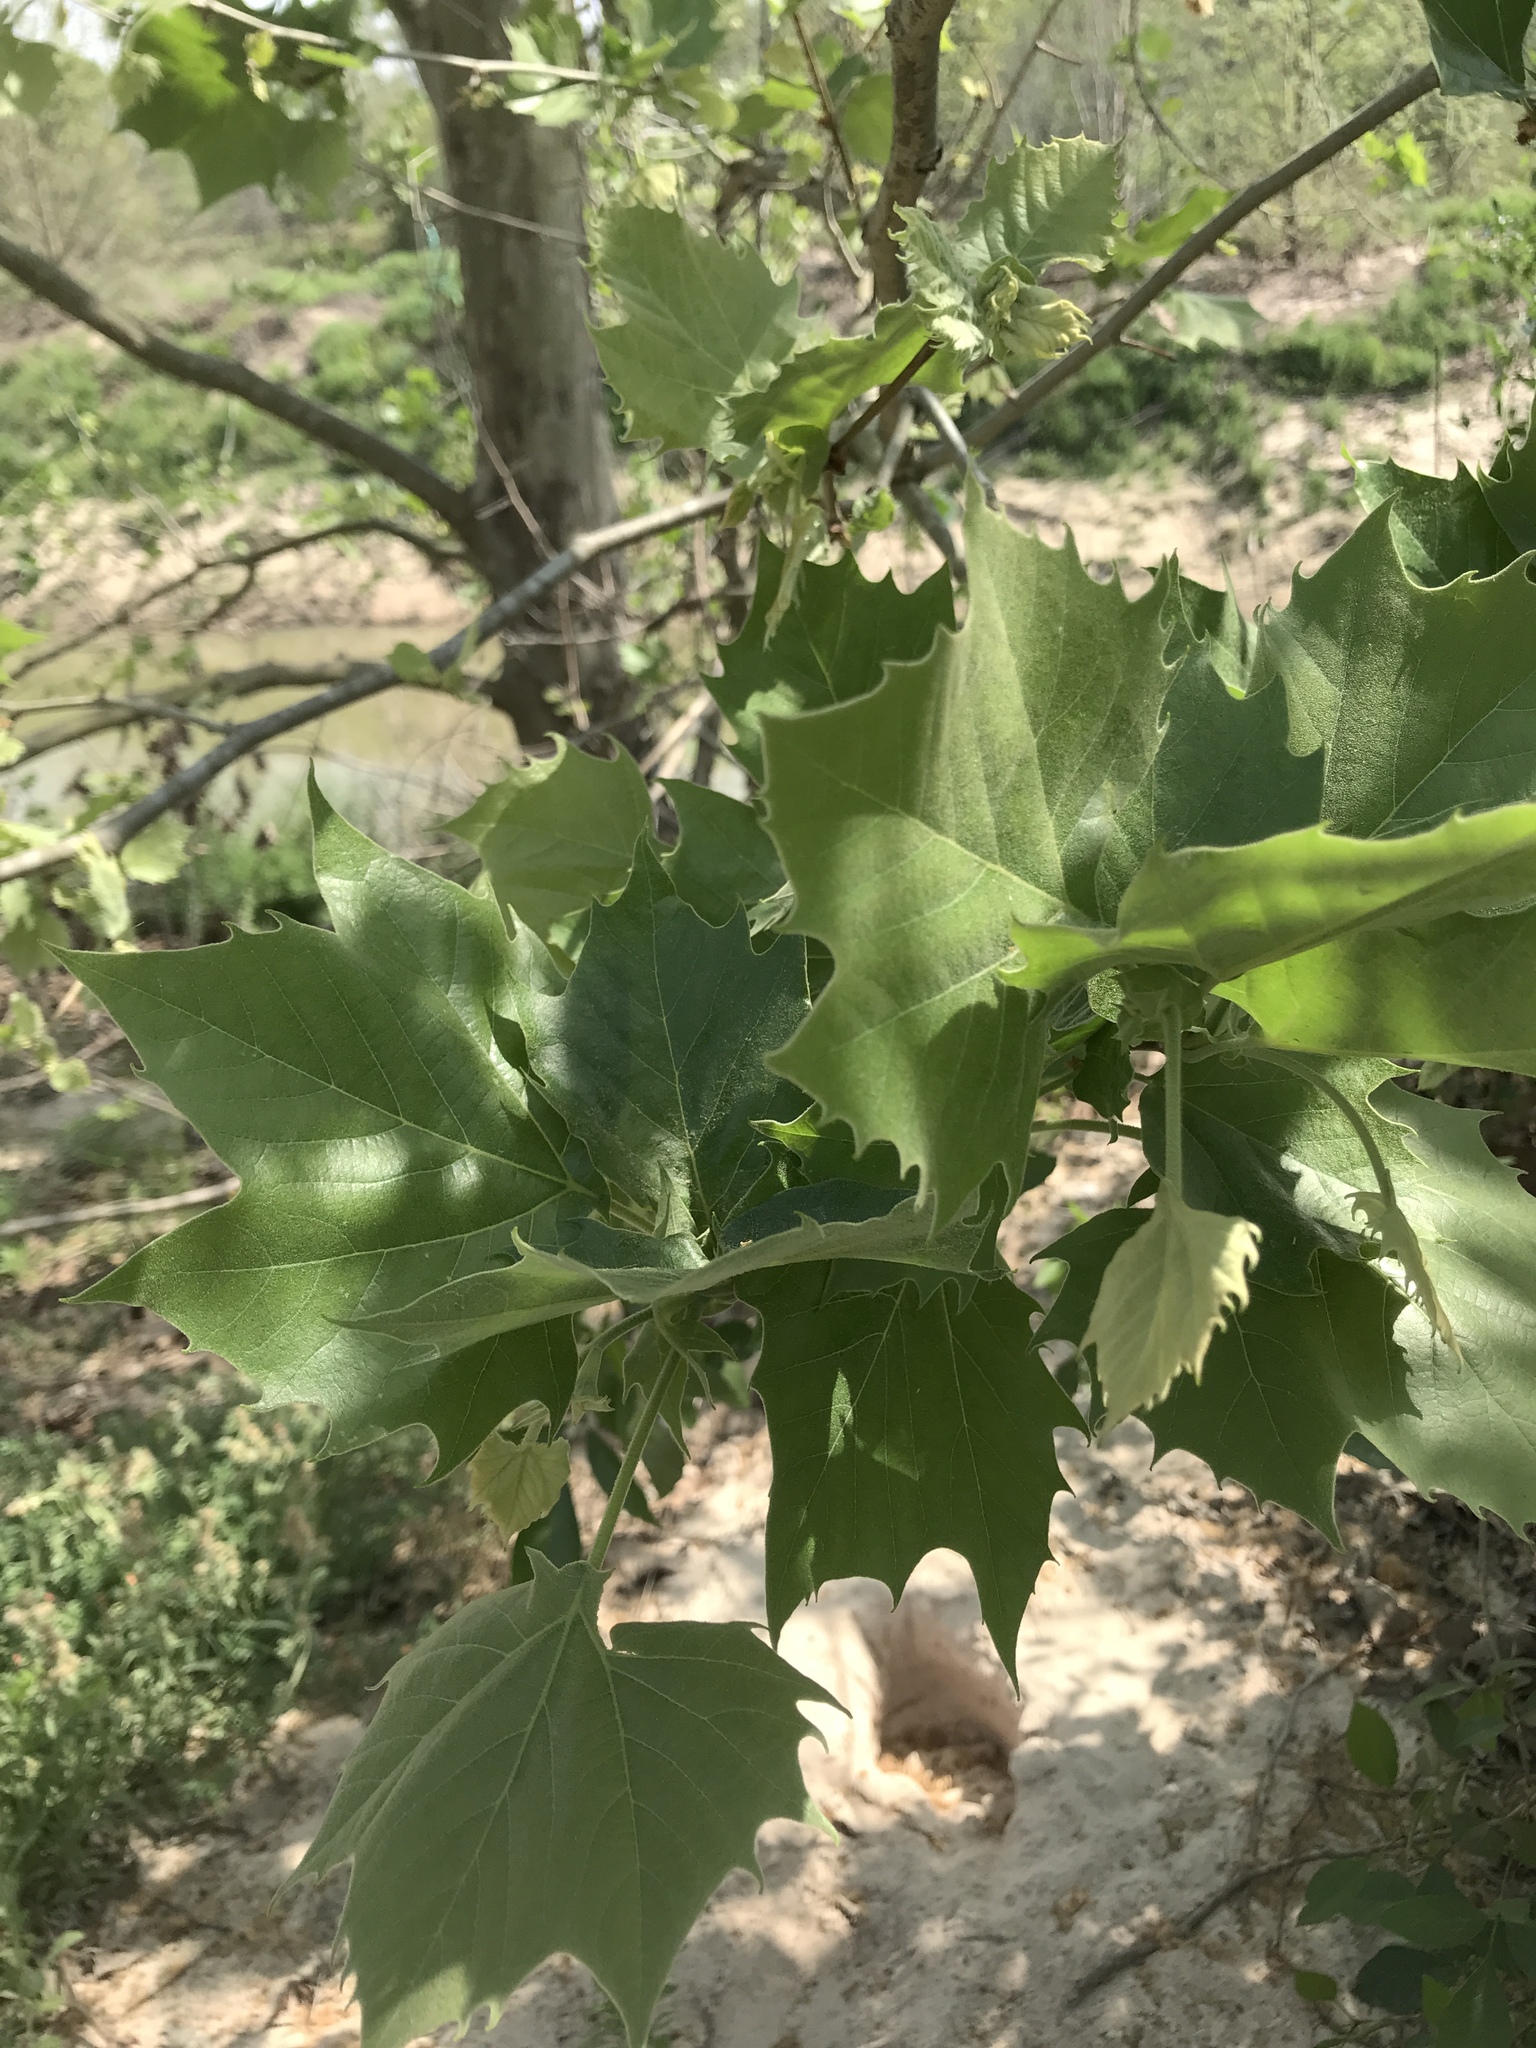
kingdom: Plantae
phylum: Tracheophyta
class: Magnoliopsida
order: Proteales
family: Platanaceae
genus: Platanus
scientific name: Platanus occidentalis
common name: American sycamore
